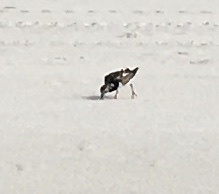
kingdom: Animalia
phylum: Chordata
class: Aves
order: Charadriiformes
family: Scolopacidae
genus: Arenaria
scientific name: Arenaria interpres
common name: Ruddy turnstone
